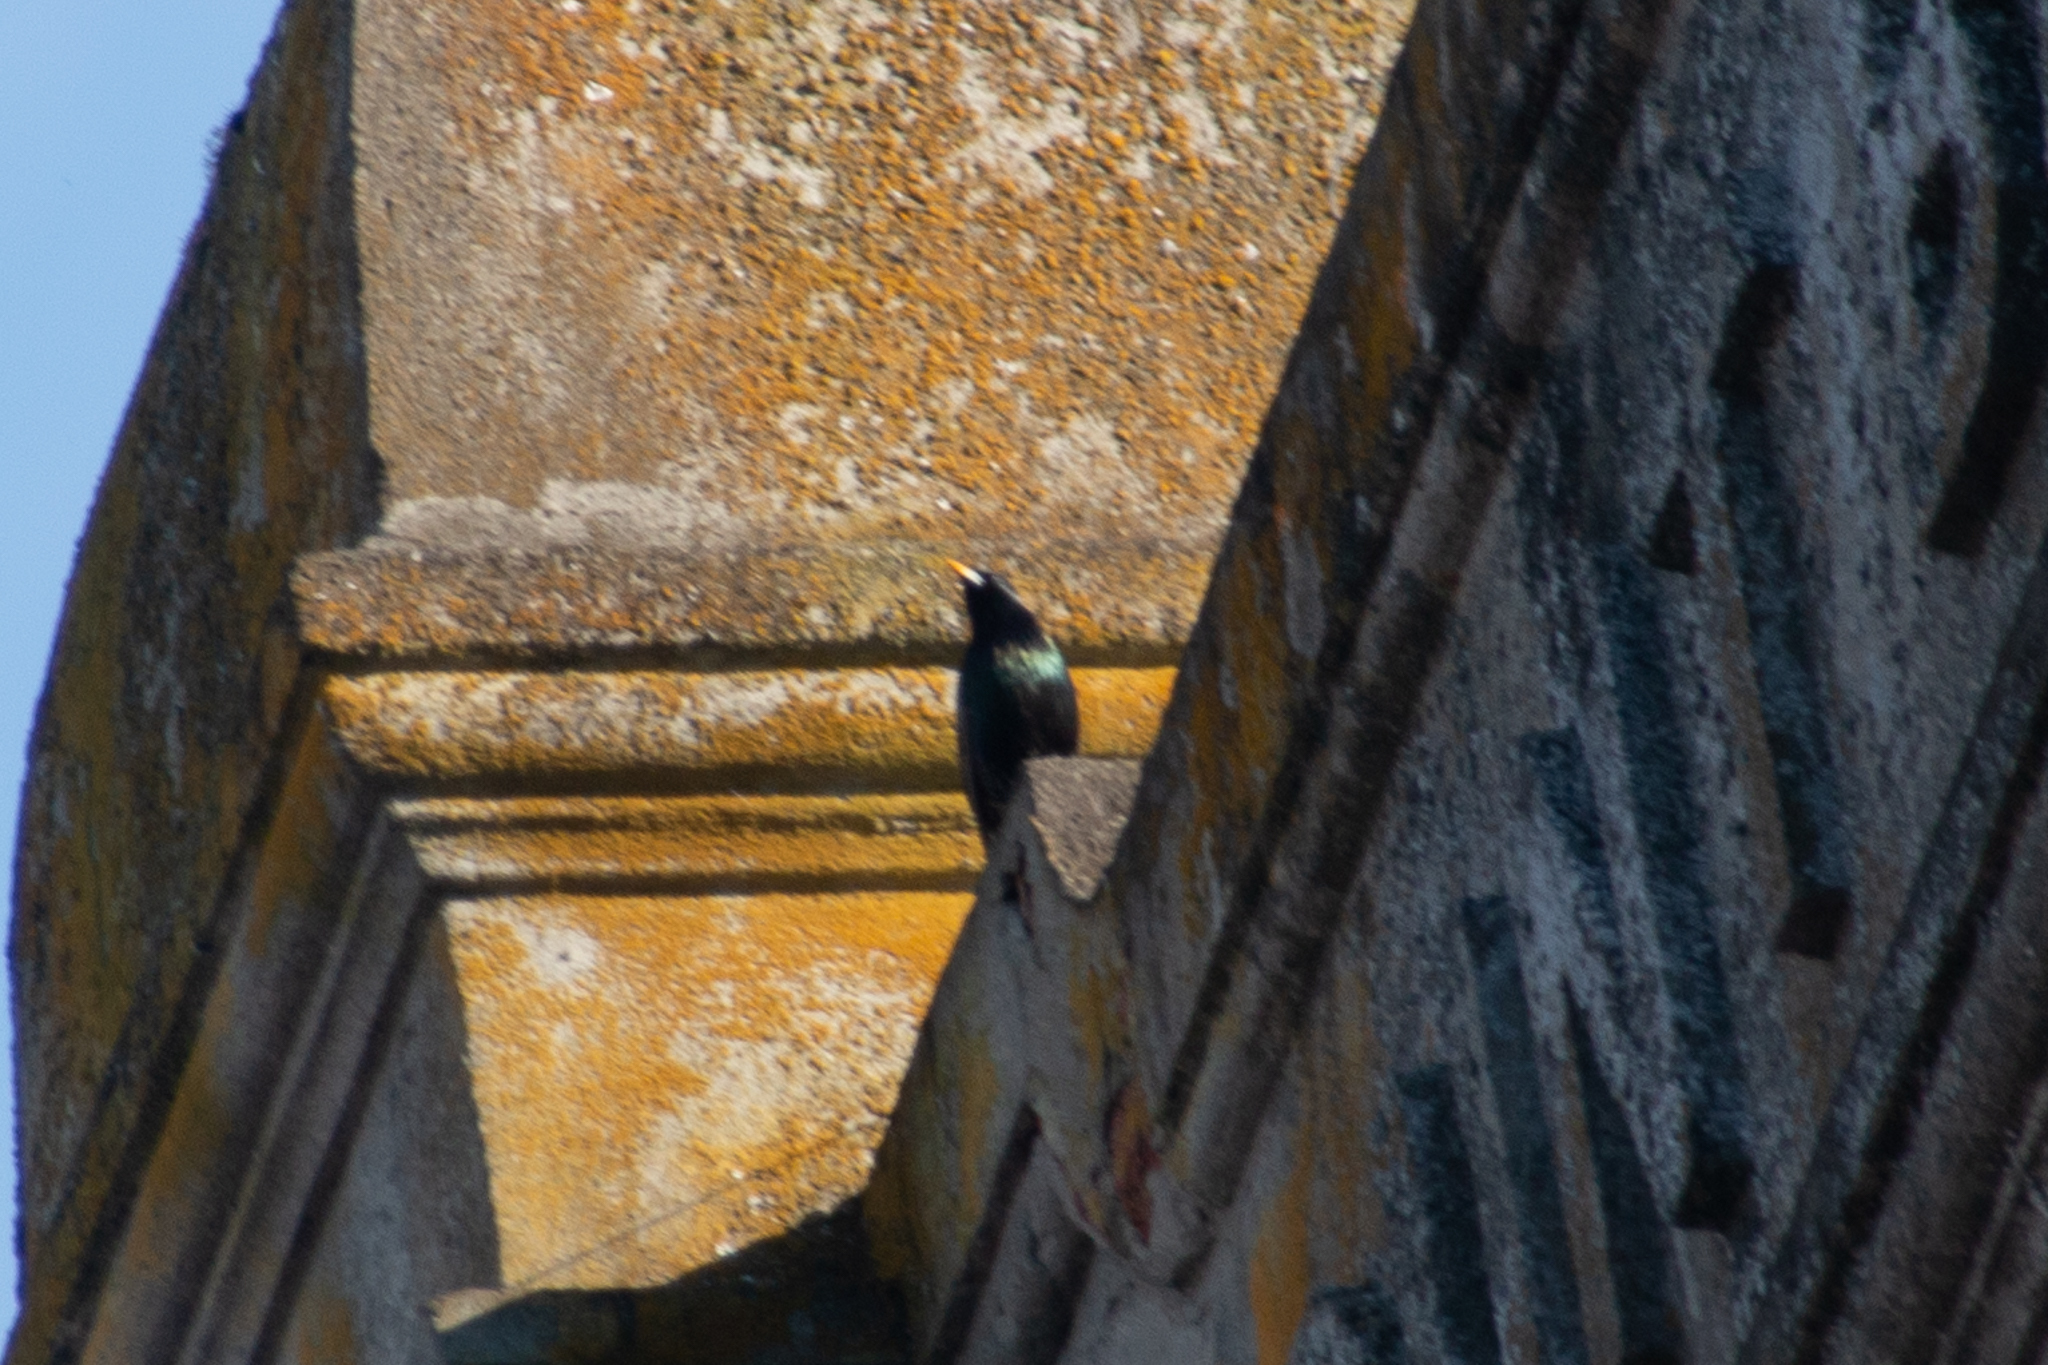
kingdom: Animalia
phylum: Chordata
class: Aves
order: Passeriformes
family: Sturnidae
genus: Sturnus
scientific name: Sturnus vulgaris
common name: Common starling
